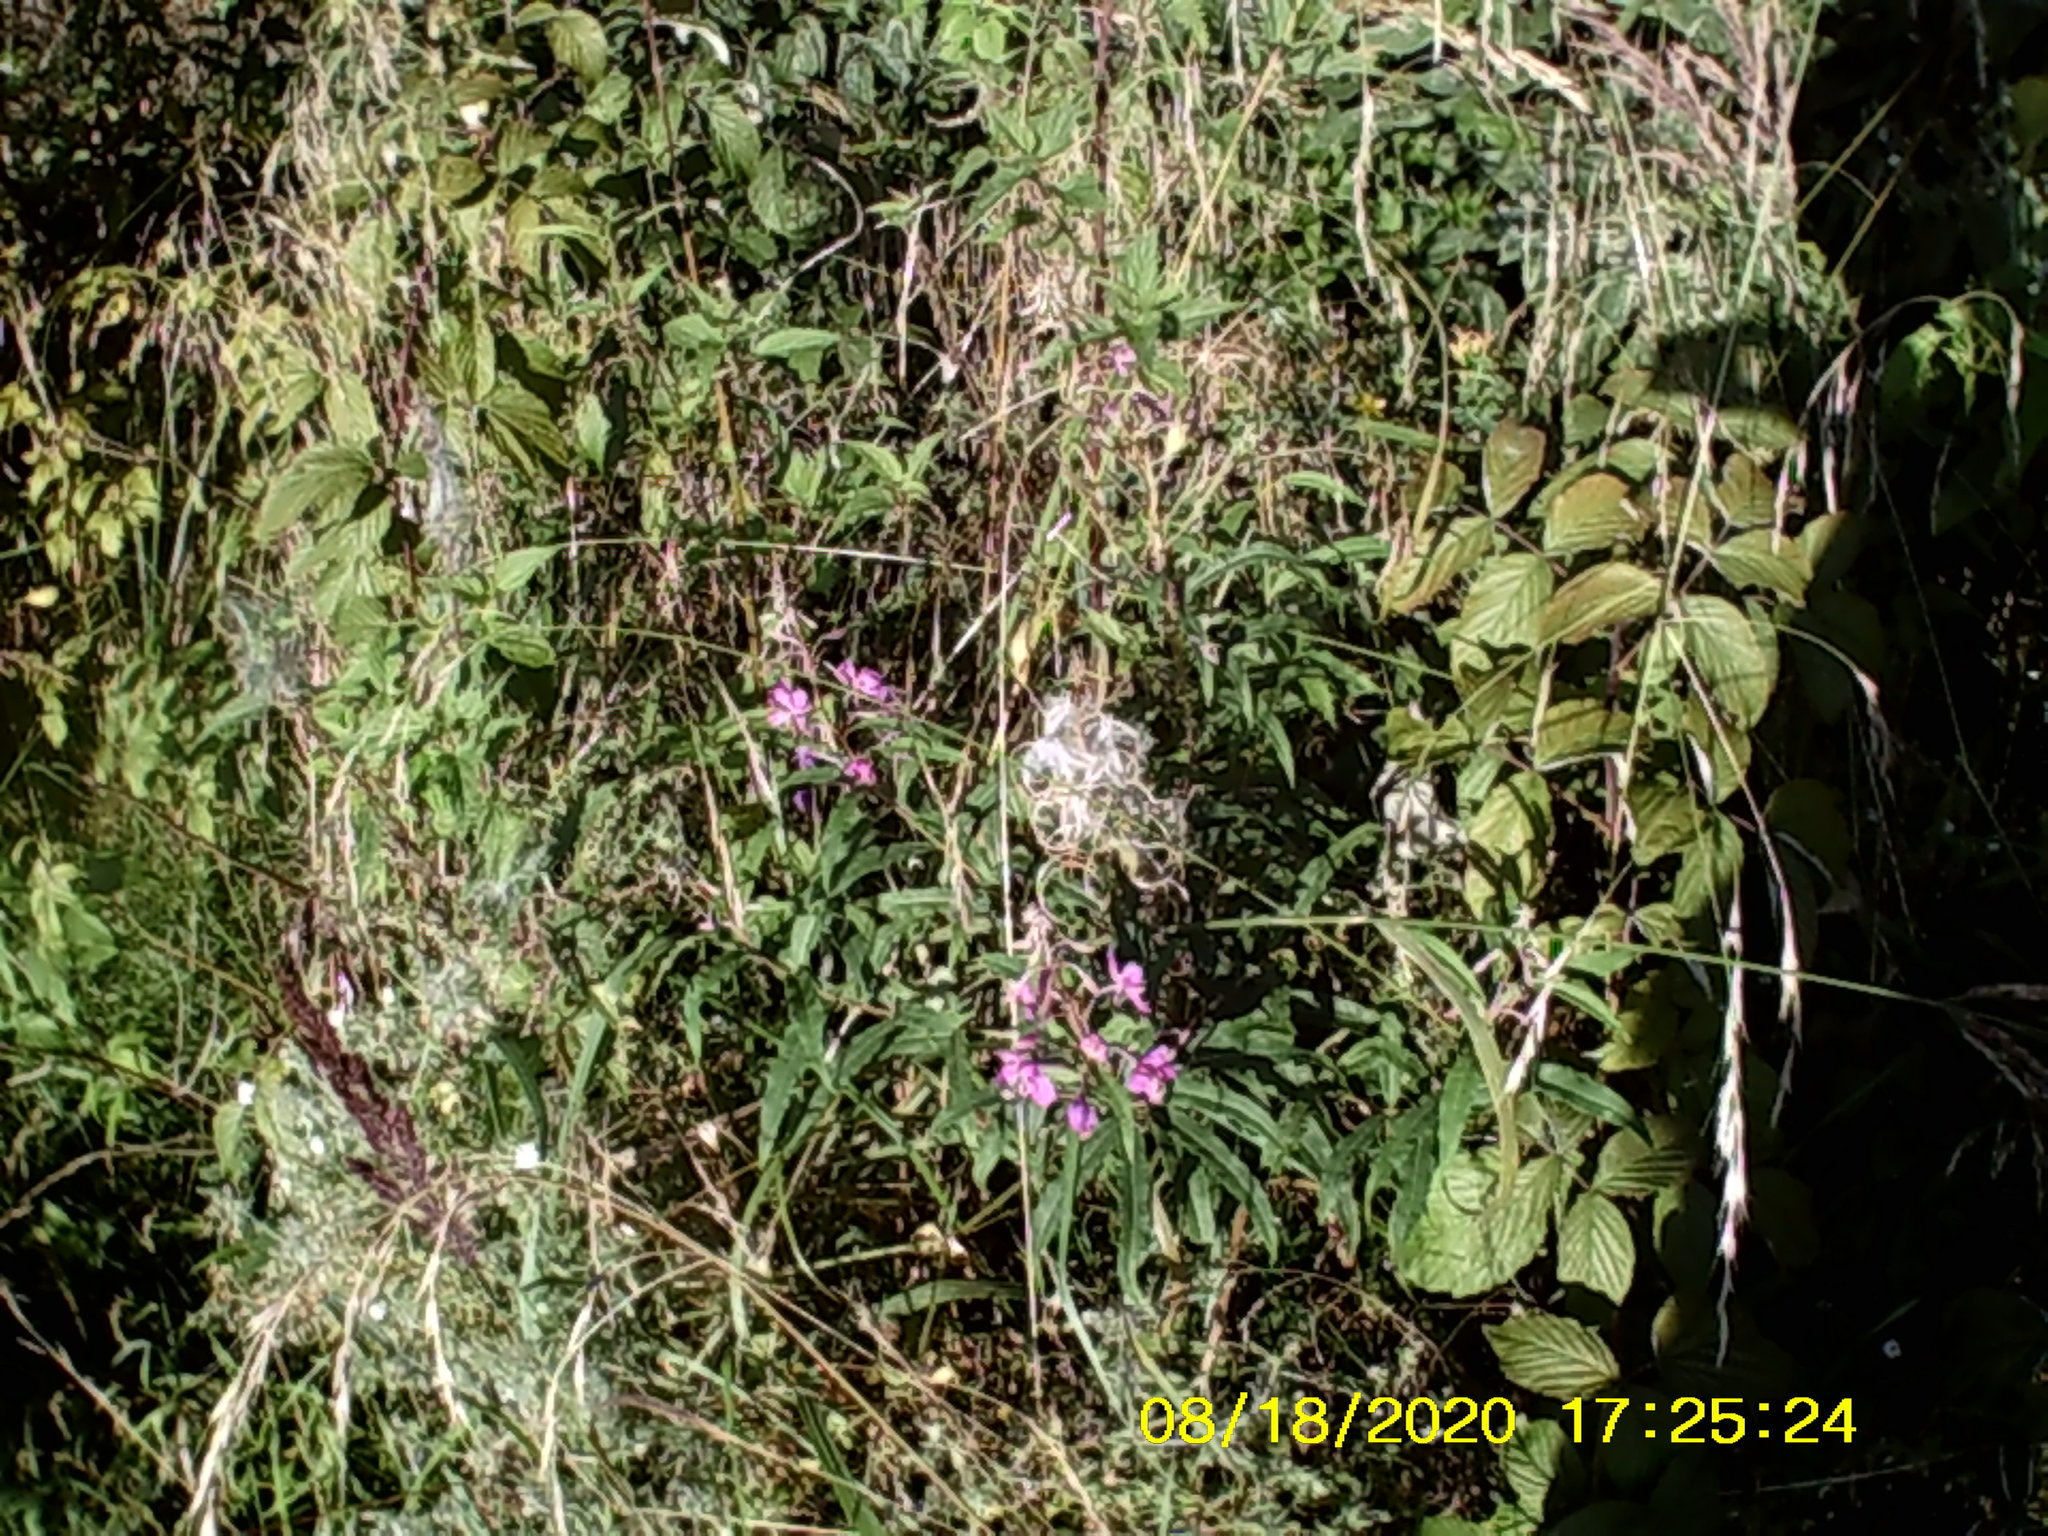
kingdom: Plantae
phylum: Tracheophyta
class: Magnoliopsida
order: Myrtales
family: Onagraceae
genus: Chamaenerion
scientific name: Chamaenerion angustifolium
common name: Fireweed
